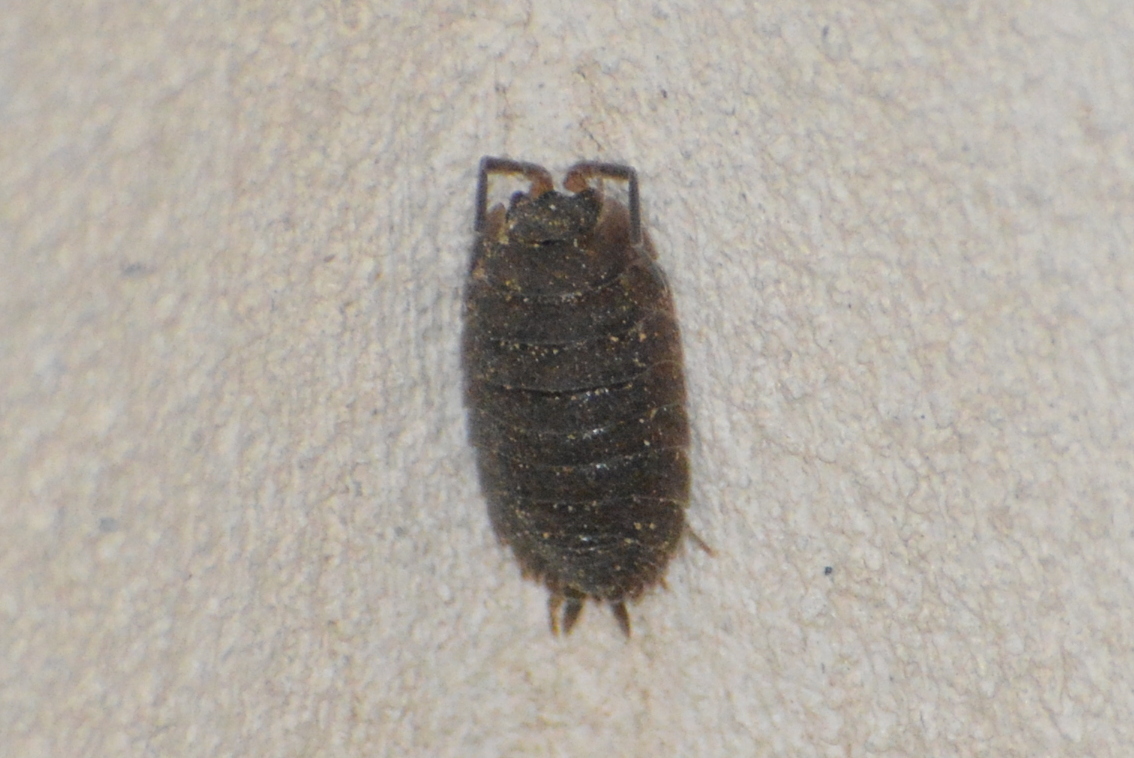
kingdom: Animalia
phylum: Arthropoda
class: Malacostraca
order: Isopoda
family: Porcellionidae
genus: Porcellio
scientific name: Porcellio scaber
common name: Common rough woodlouse
